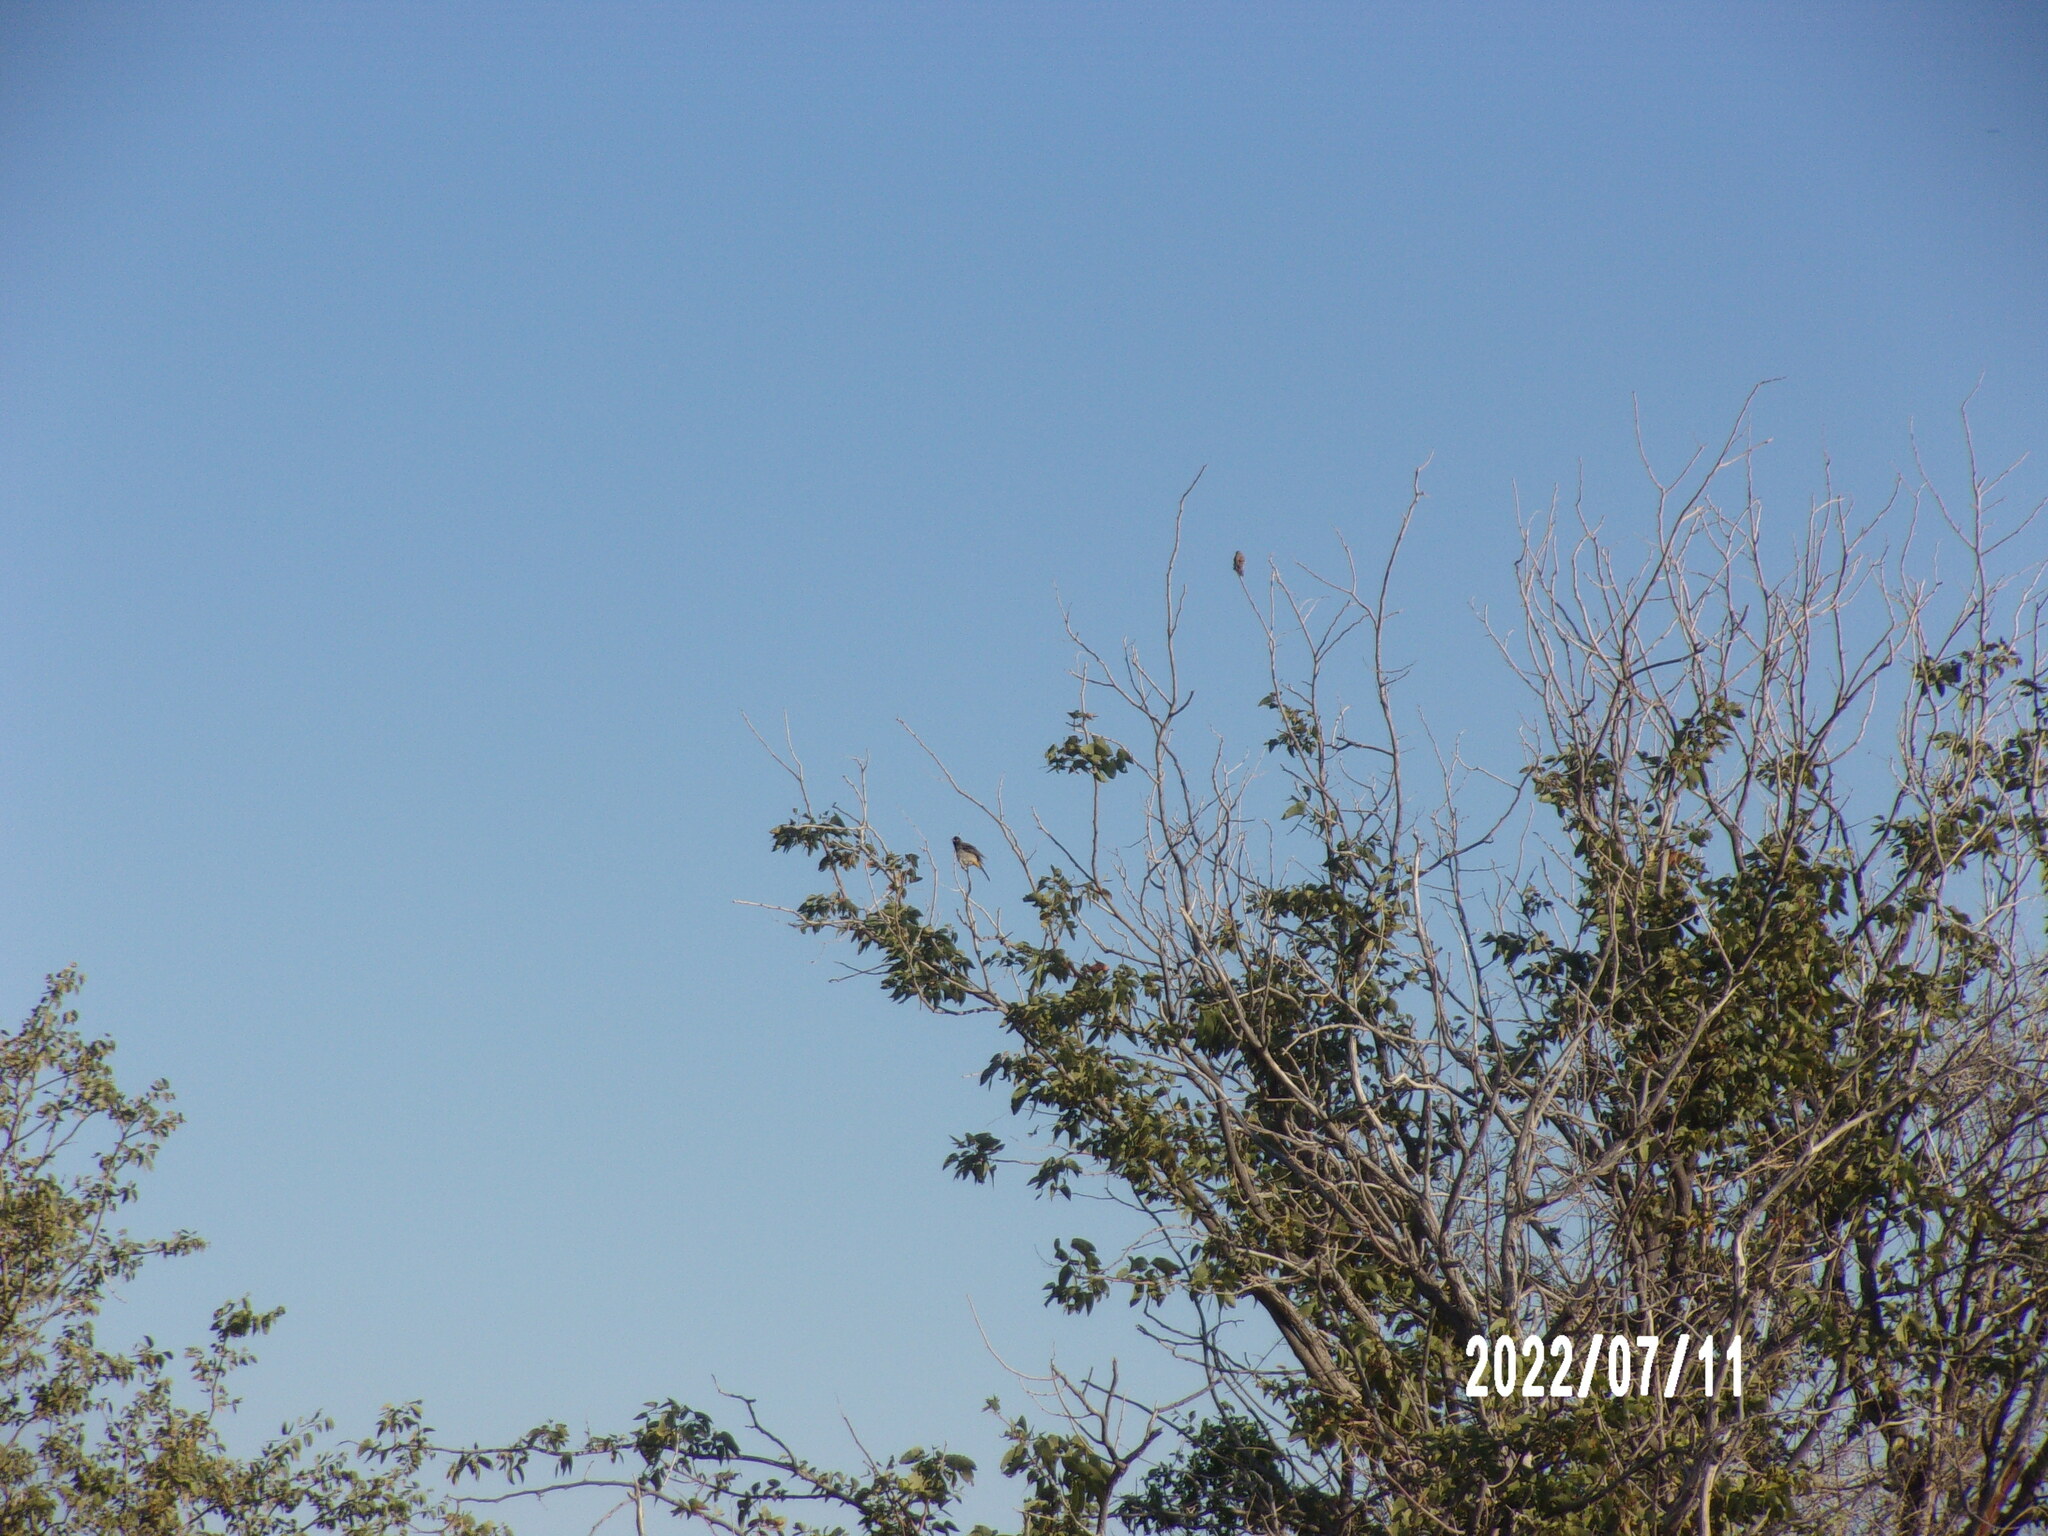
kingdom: Animalia
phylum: Chordata
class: Aves
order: Passeriformes
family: Pycnonotidae
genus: Pycnonotus
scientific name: Pycnonotus nigricans
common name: African red-eyed bulbul
